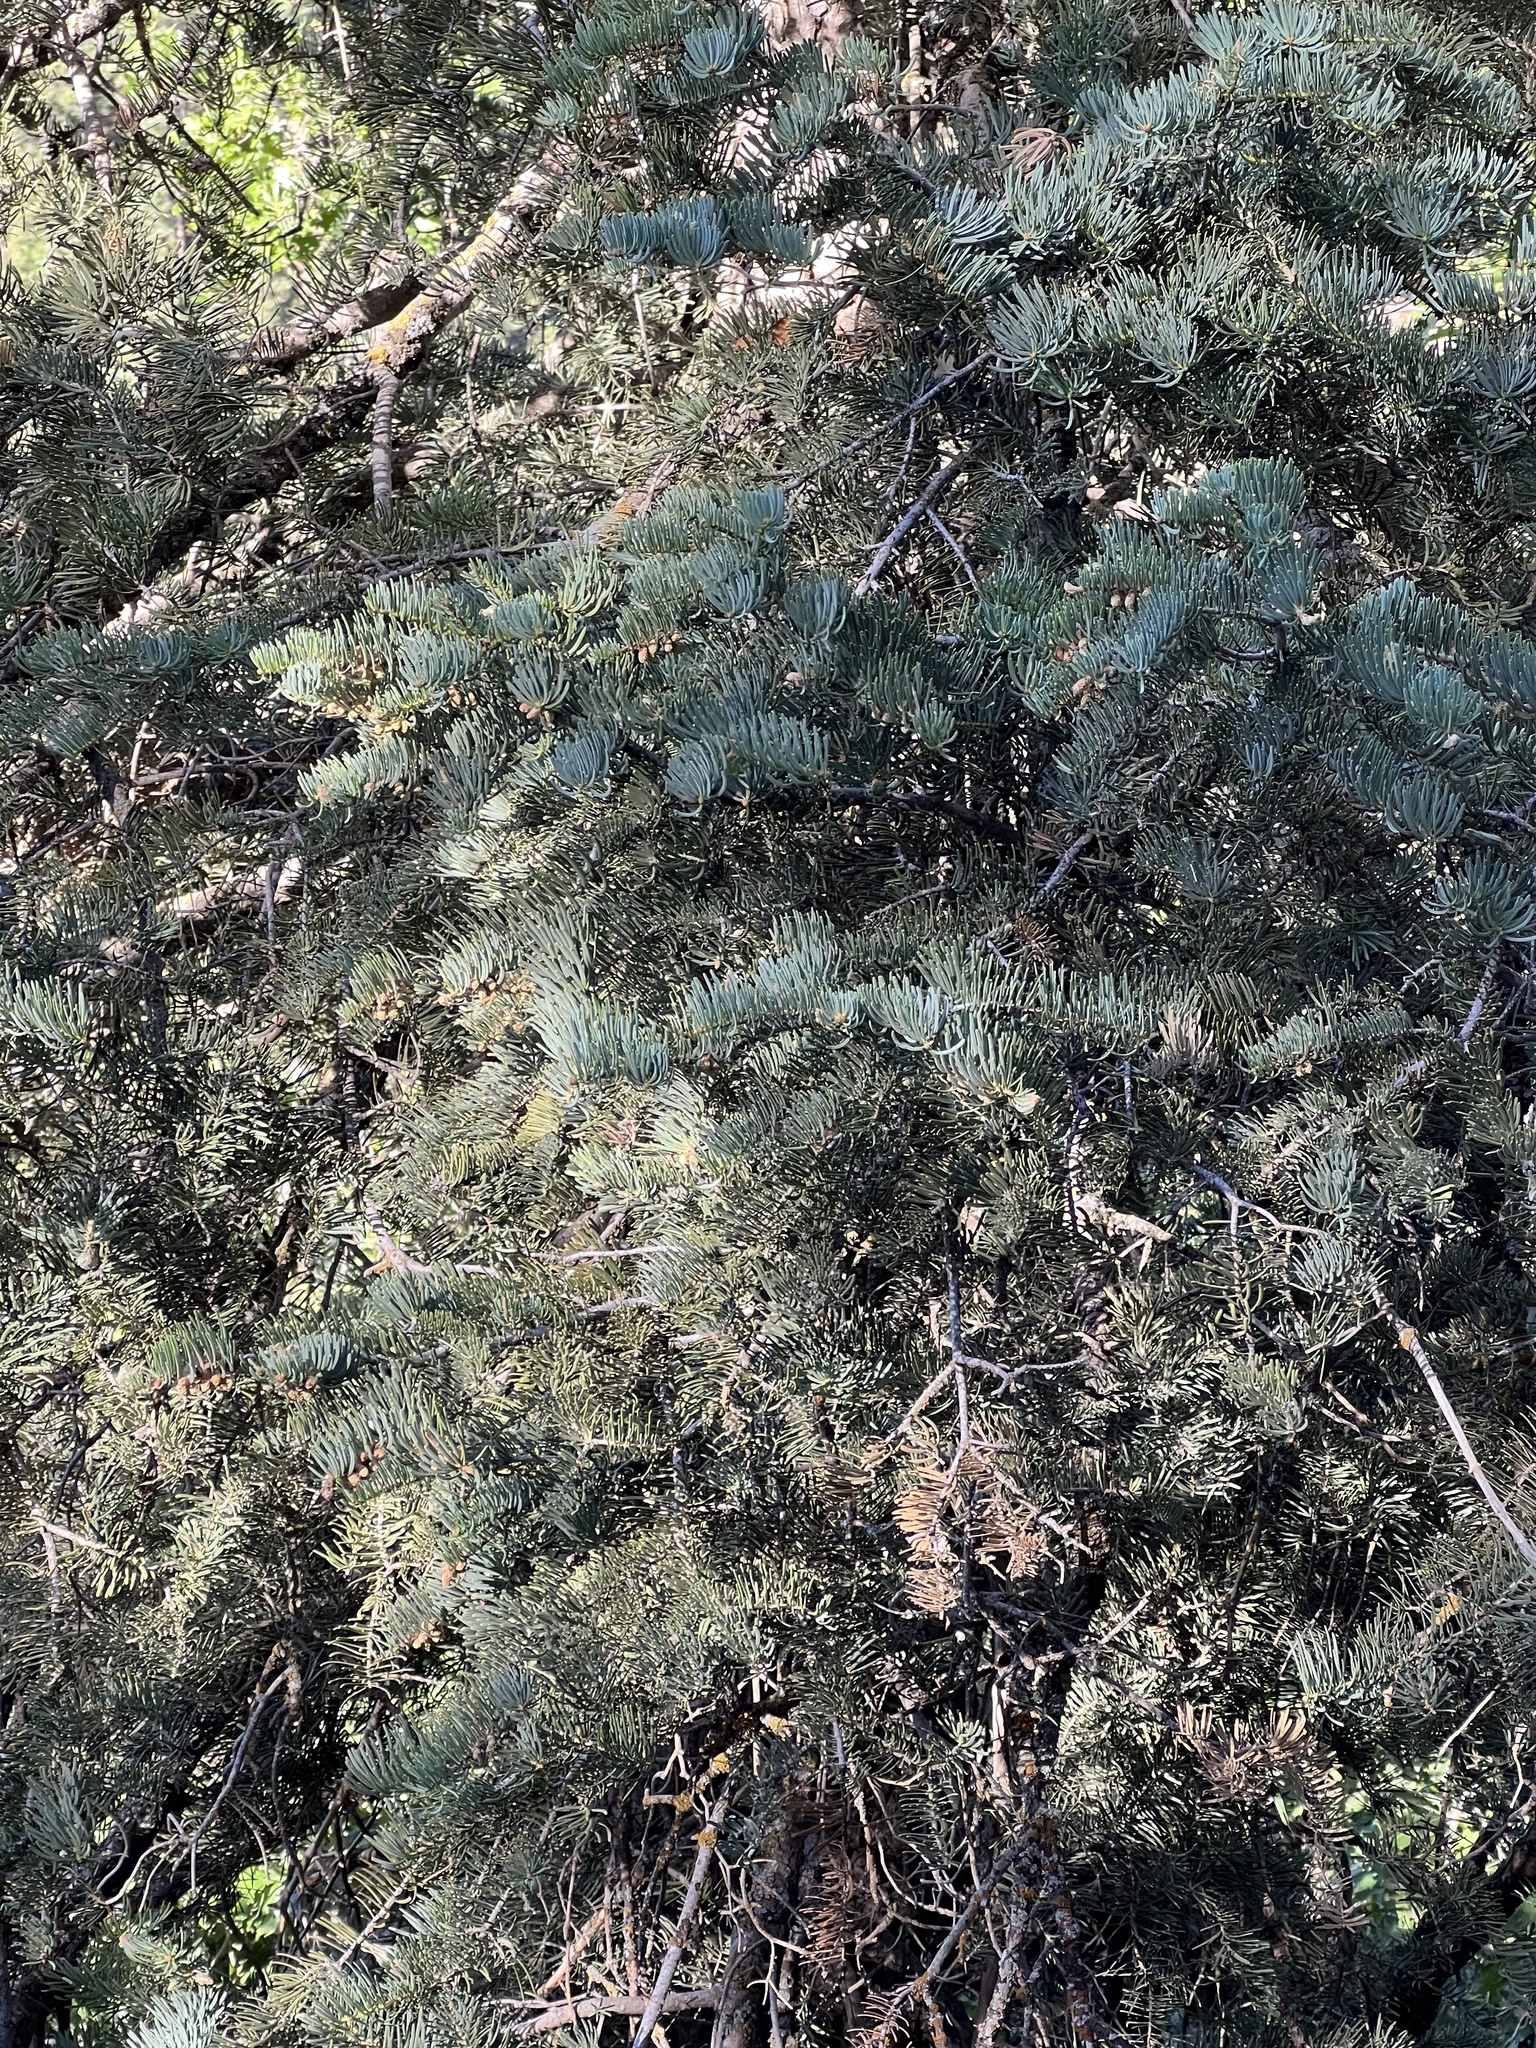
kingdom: Plantae
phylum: Tracheophyta
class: Pinopsida
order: Pinales
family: Pinaceae
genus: Abies
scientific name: Abies concolor
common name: Colorado fir
